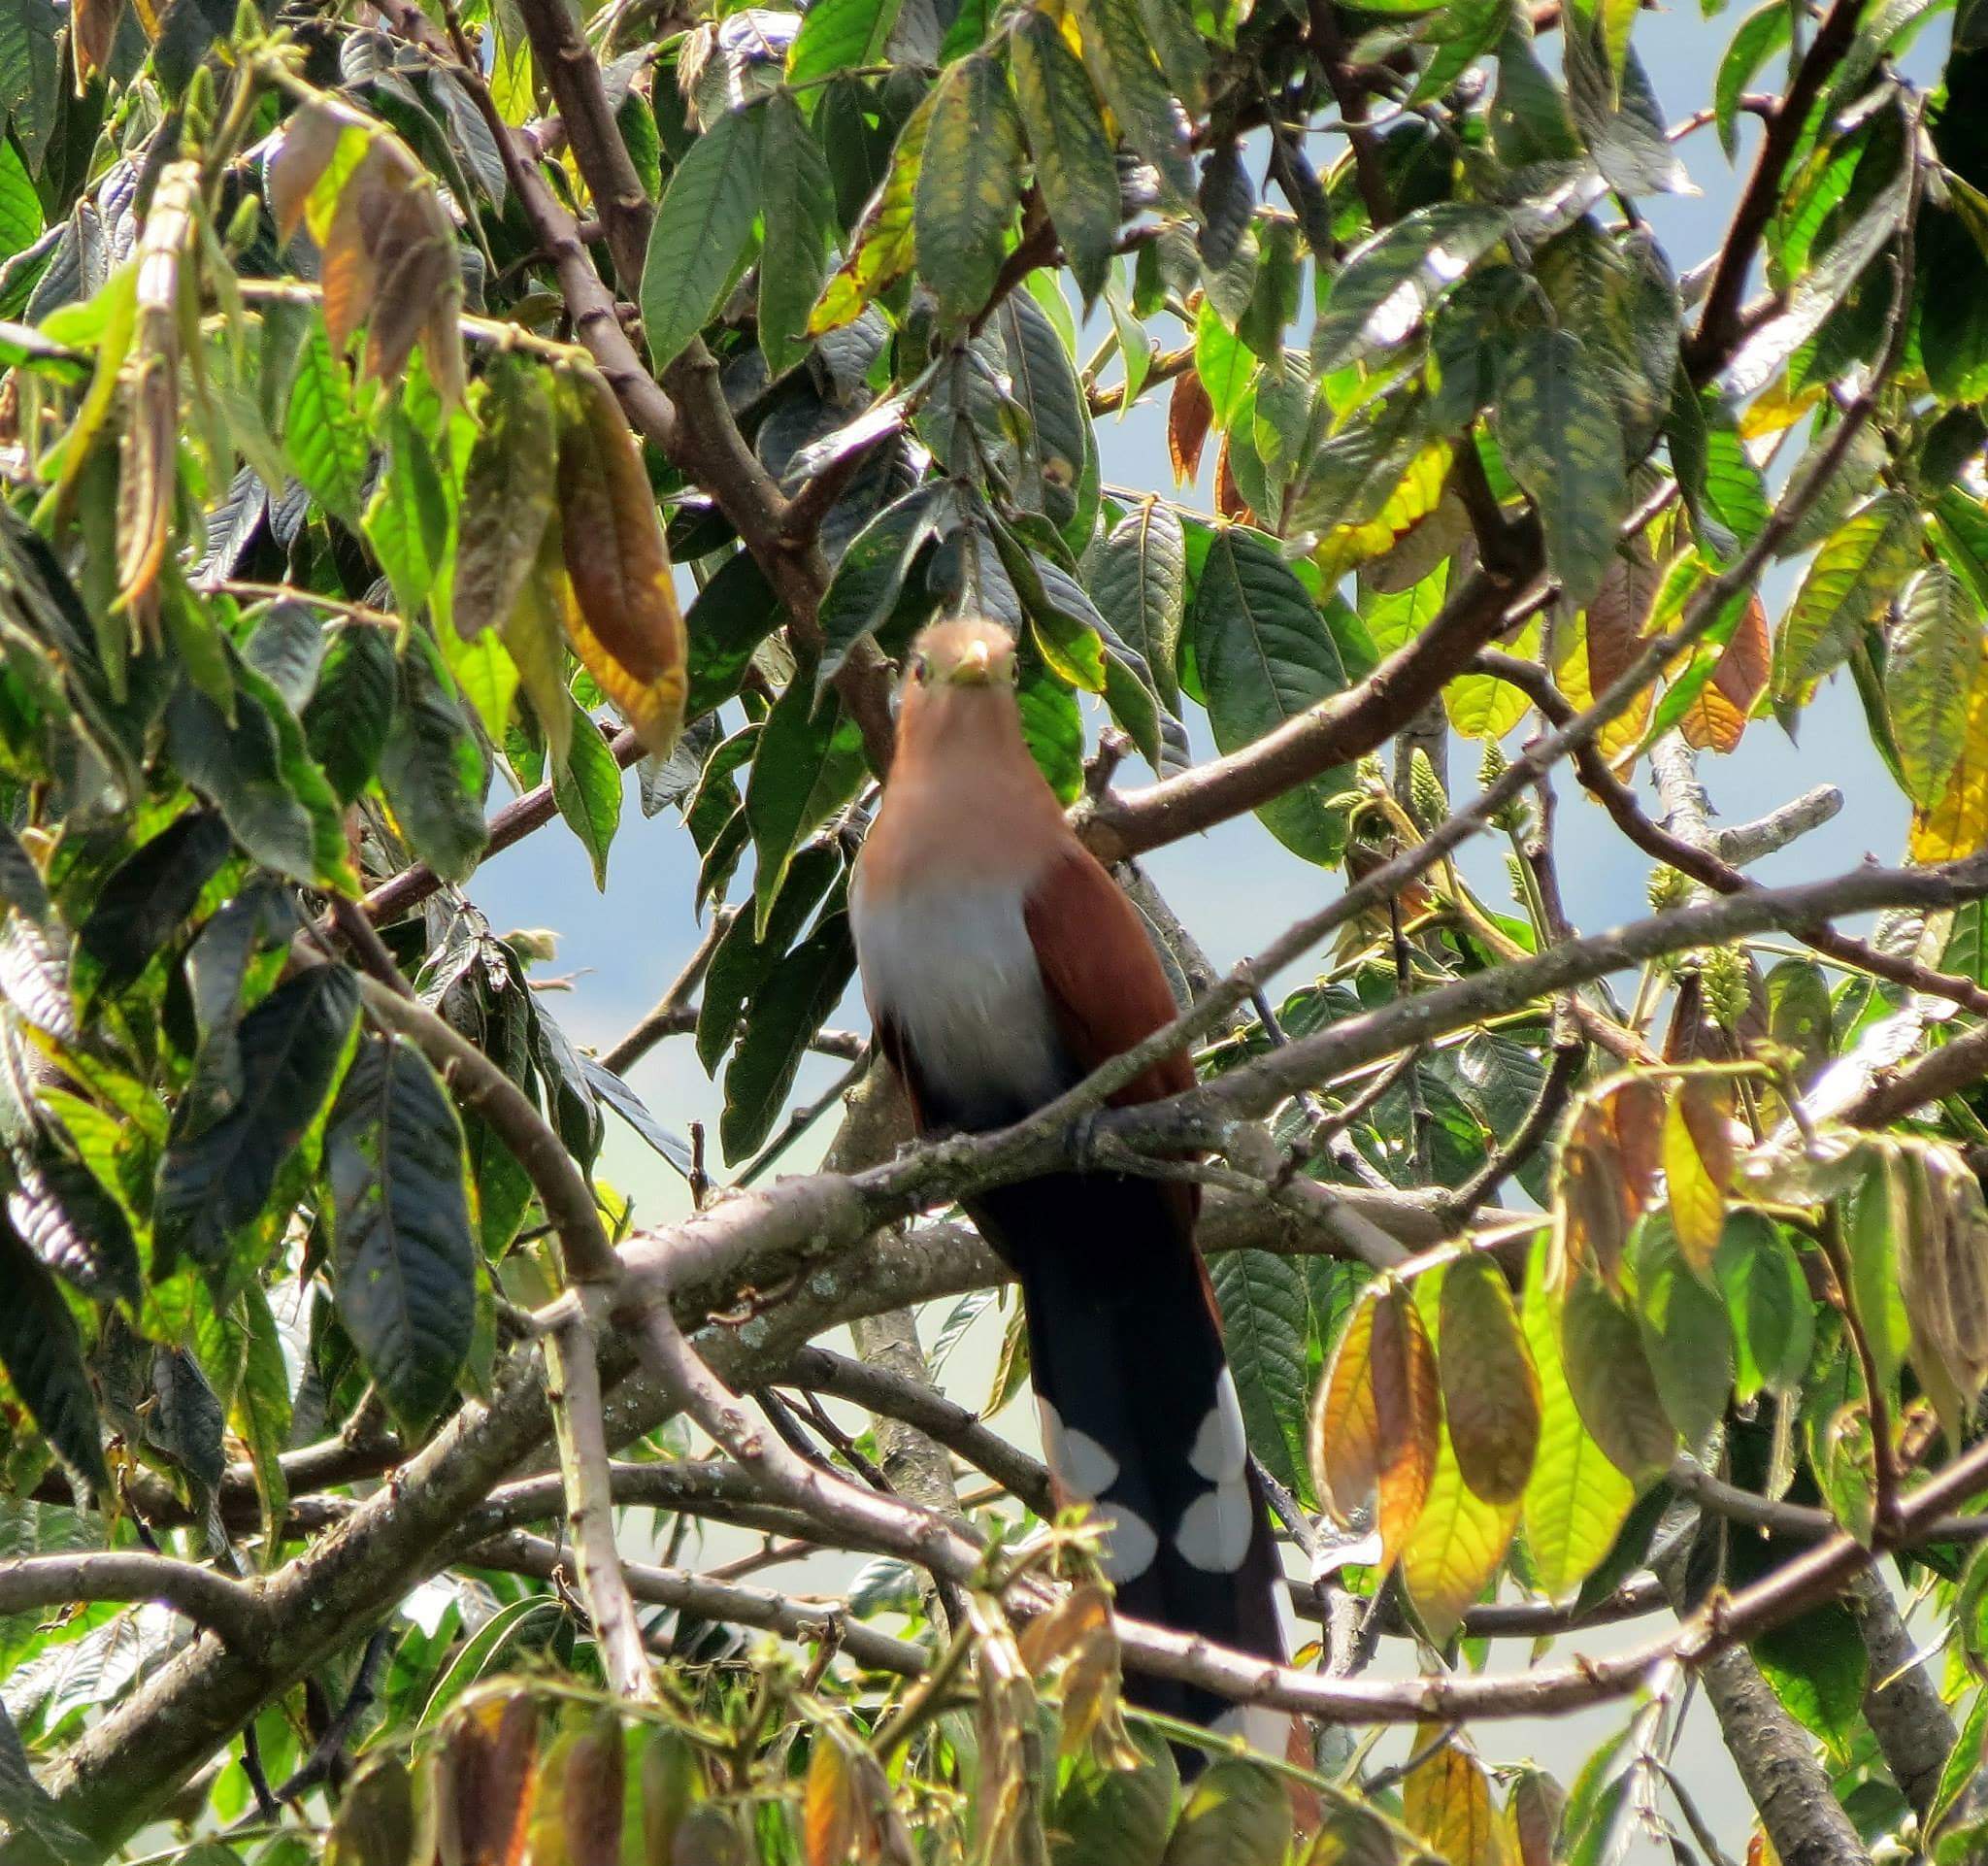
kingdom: Animalia
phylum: Chordata
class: Aves
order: Cuculiformes
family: Cuculidae
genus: Piaya
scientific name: Piaya cayana
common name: Squirrel cuckoo
